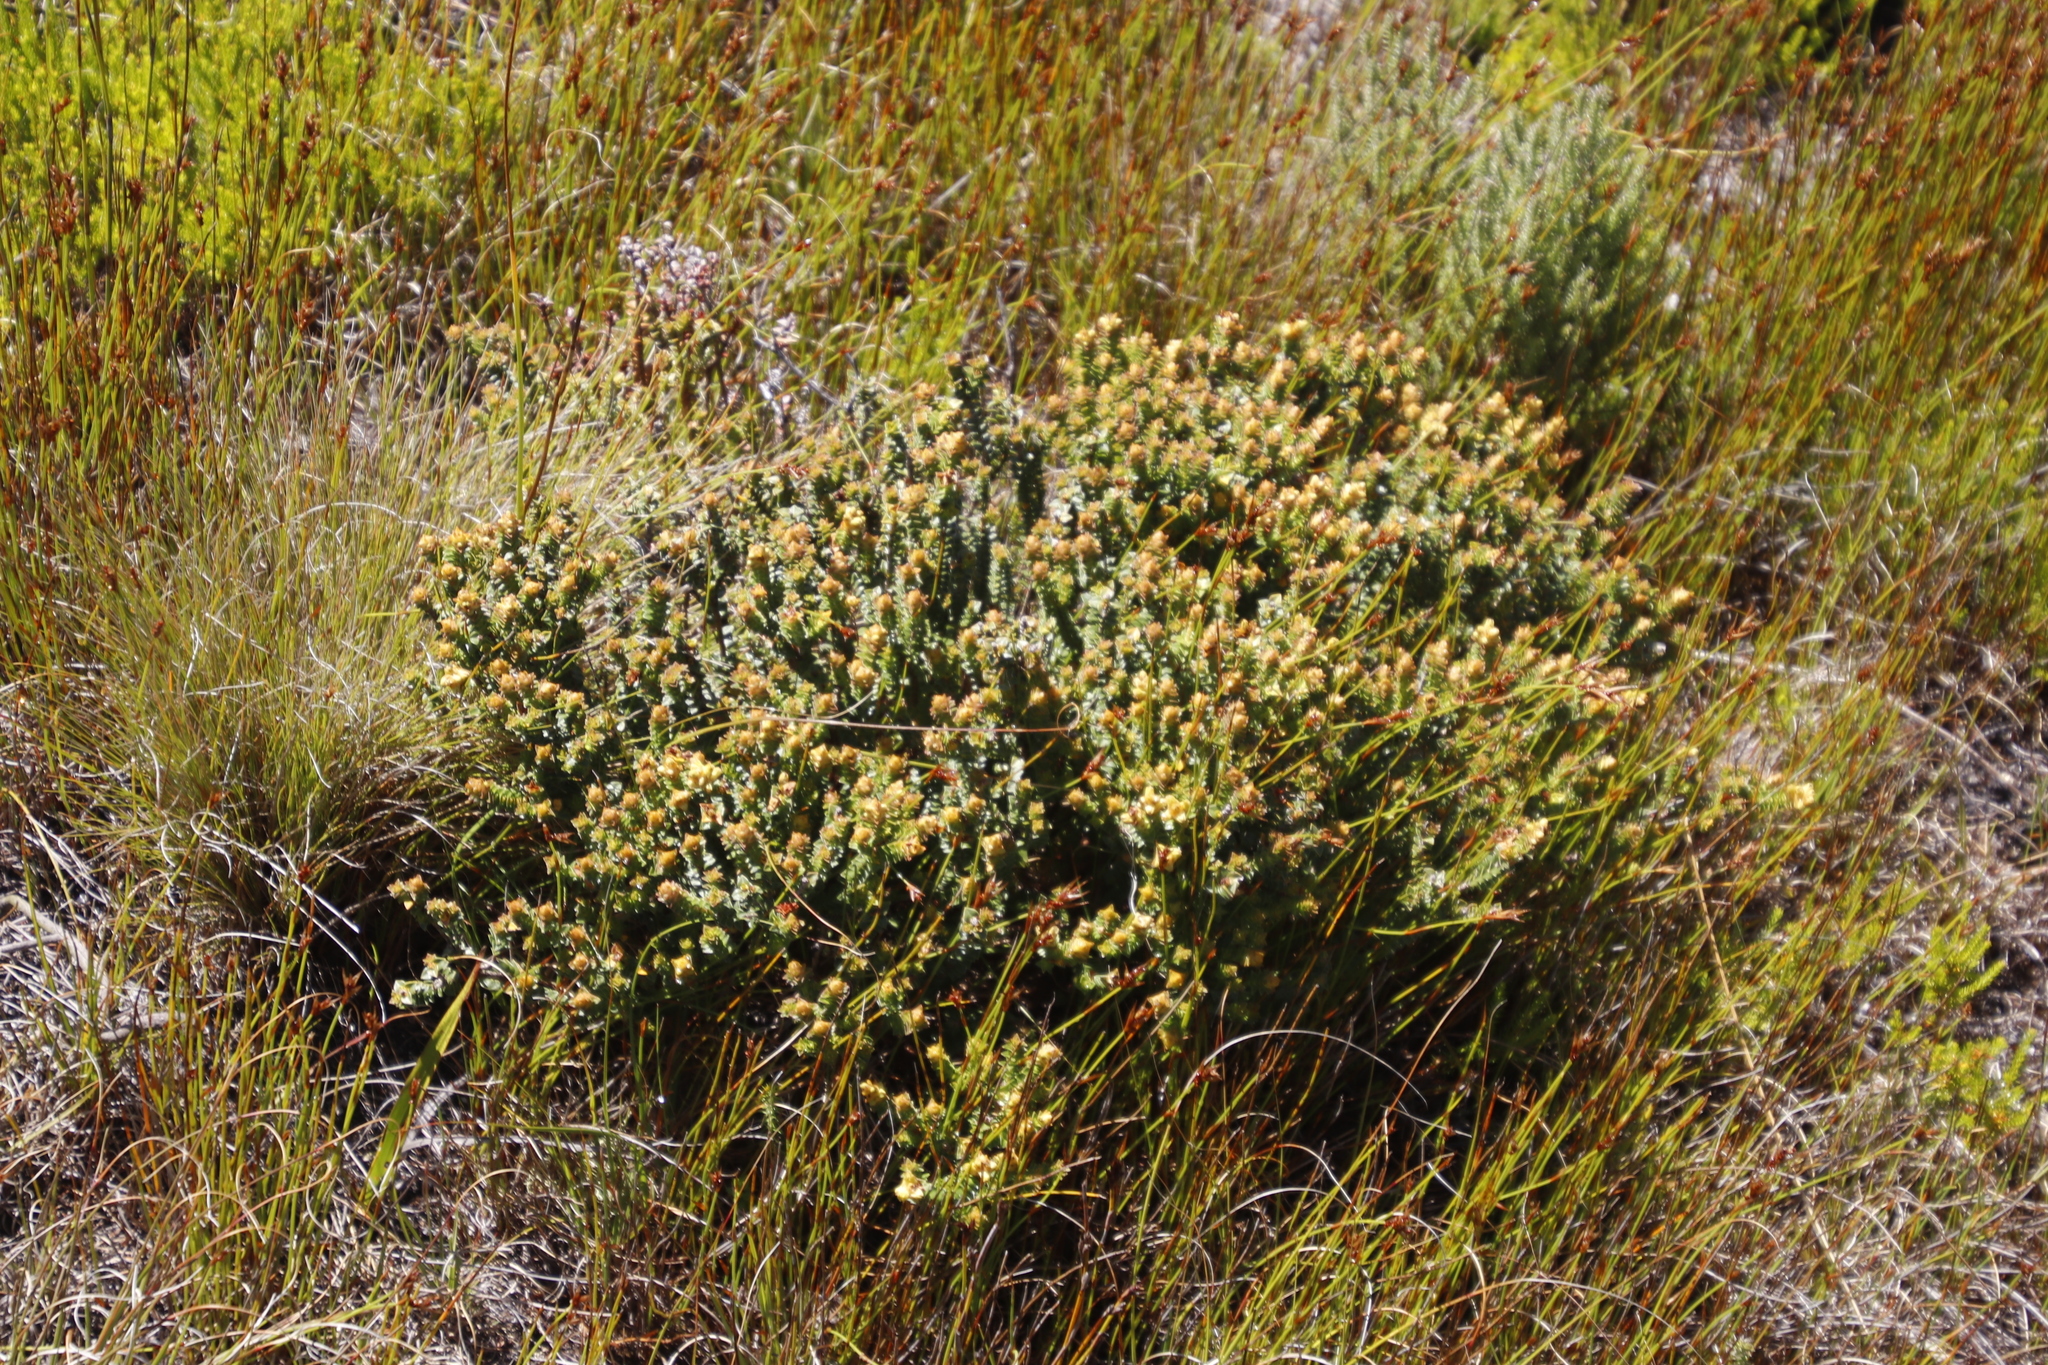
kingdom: Plantae
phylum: Tracheophyta
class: Magnoliopsida
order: Myrtales
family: Penaeaceae
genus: Penaea
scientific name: Penaea mucronata
